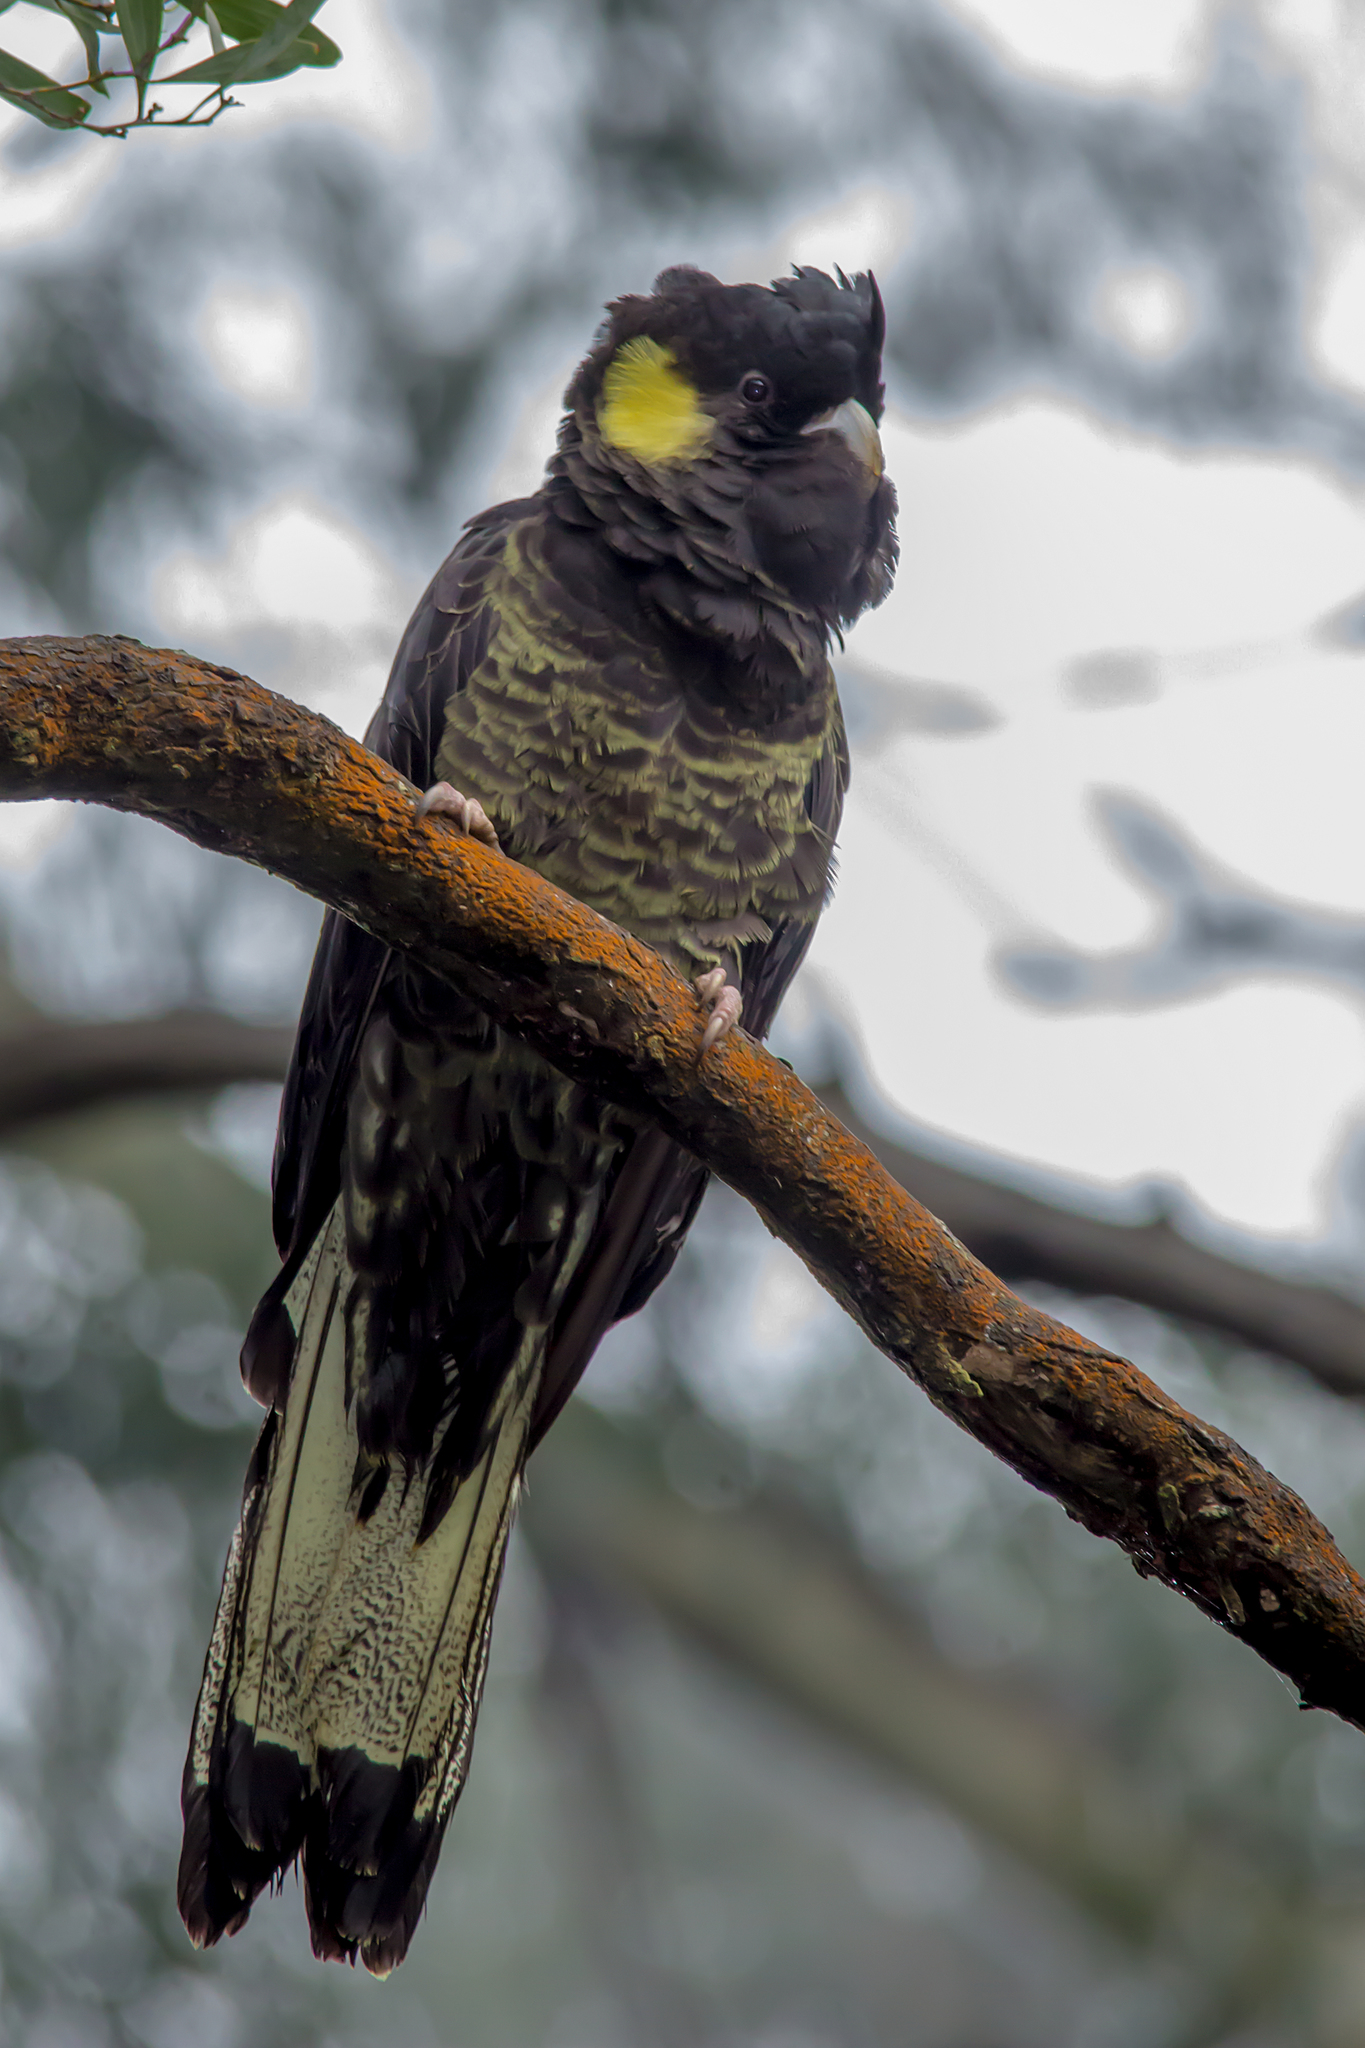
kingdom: Animalia
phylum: Chordata
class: Aves
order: Psittaciformes
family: Cacatuidae
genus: Zanda
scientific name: Zanda funerea
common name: Yellow-tailed black-cockatoo
